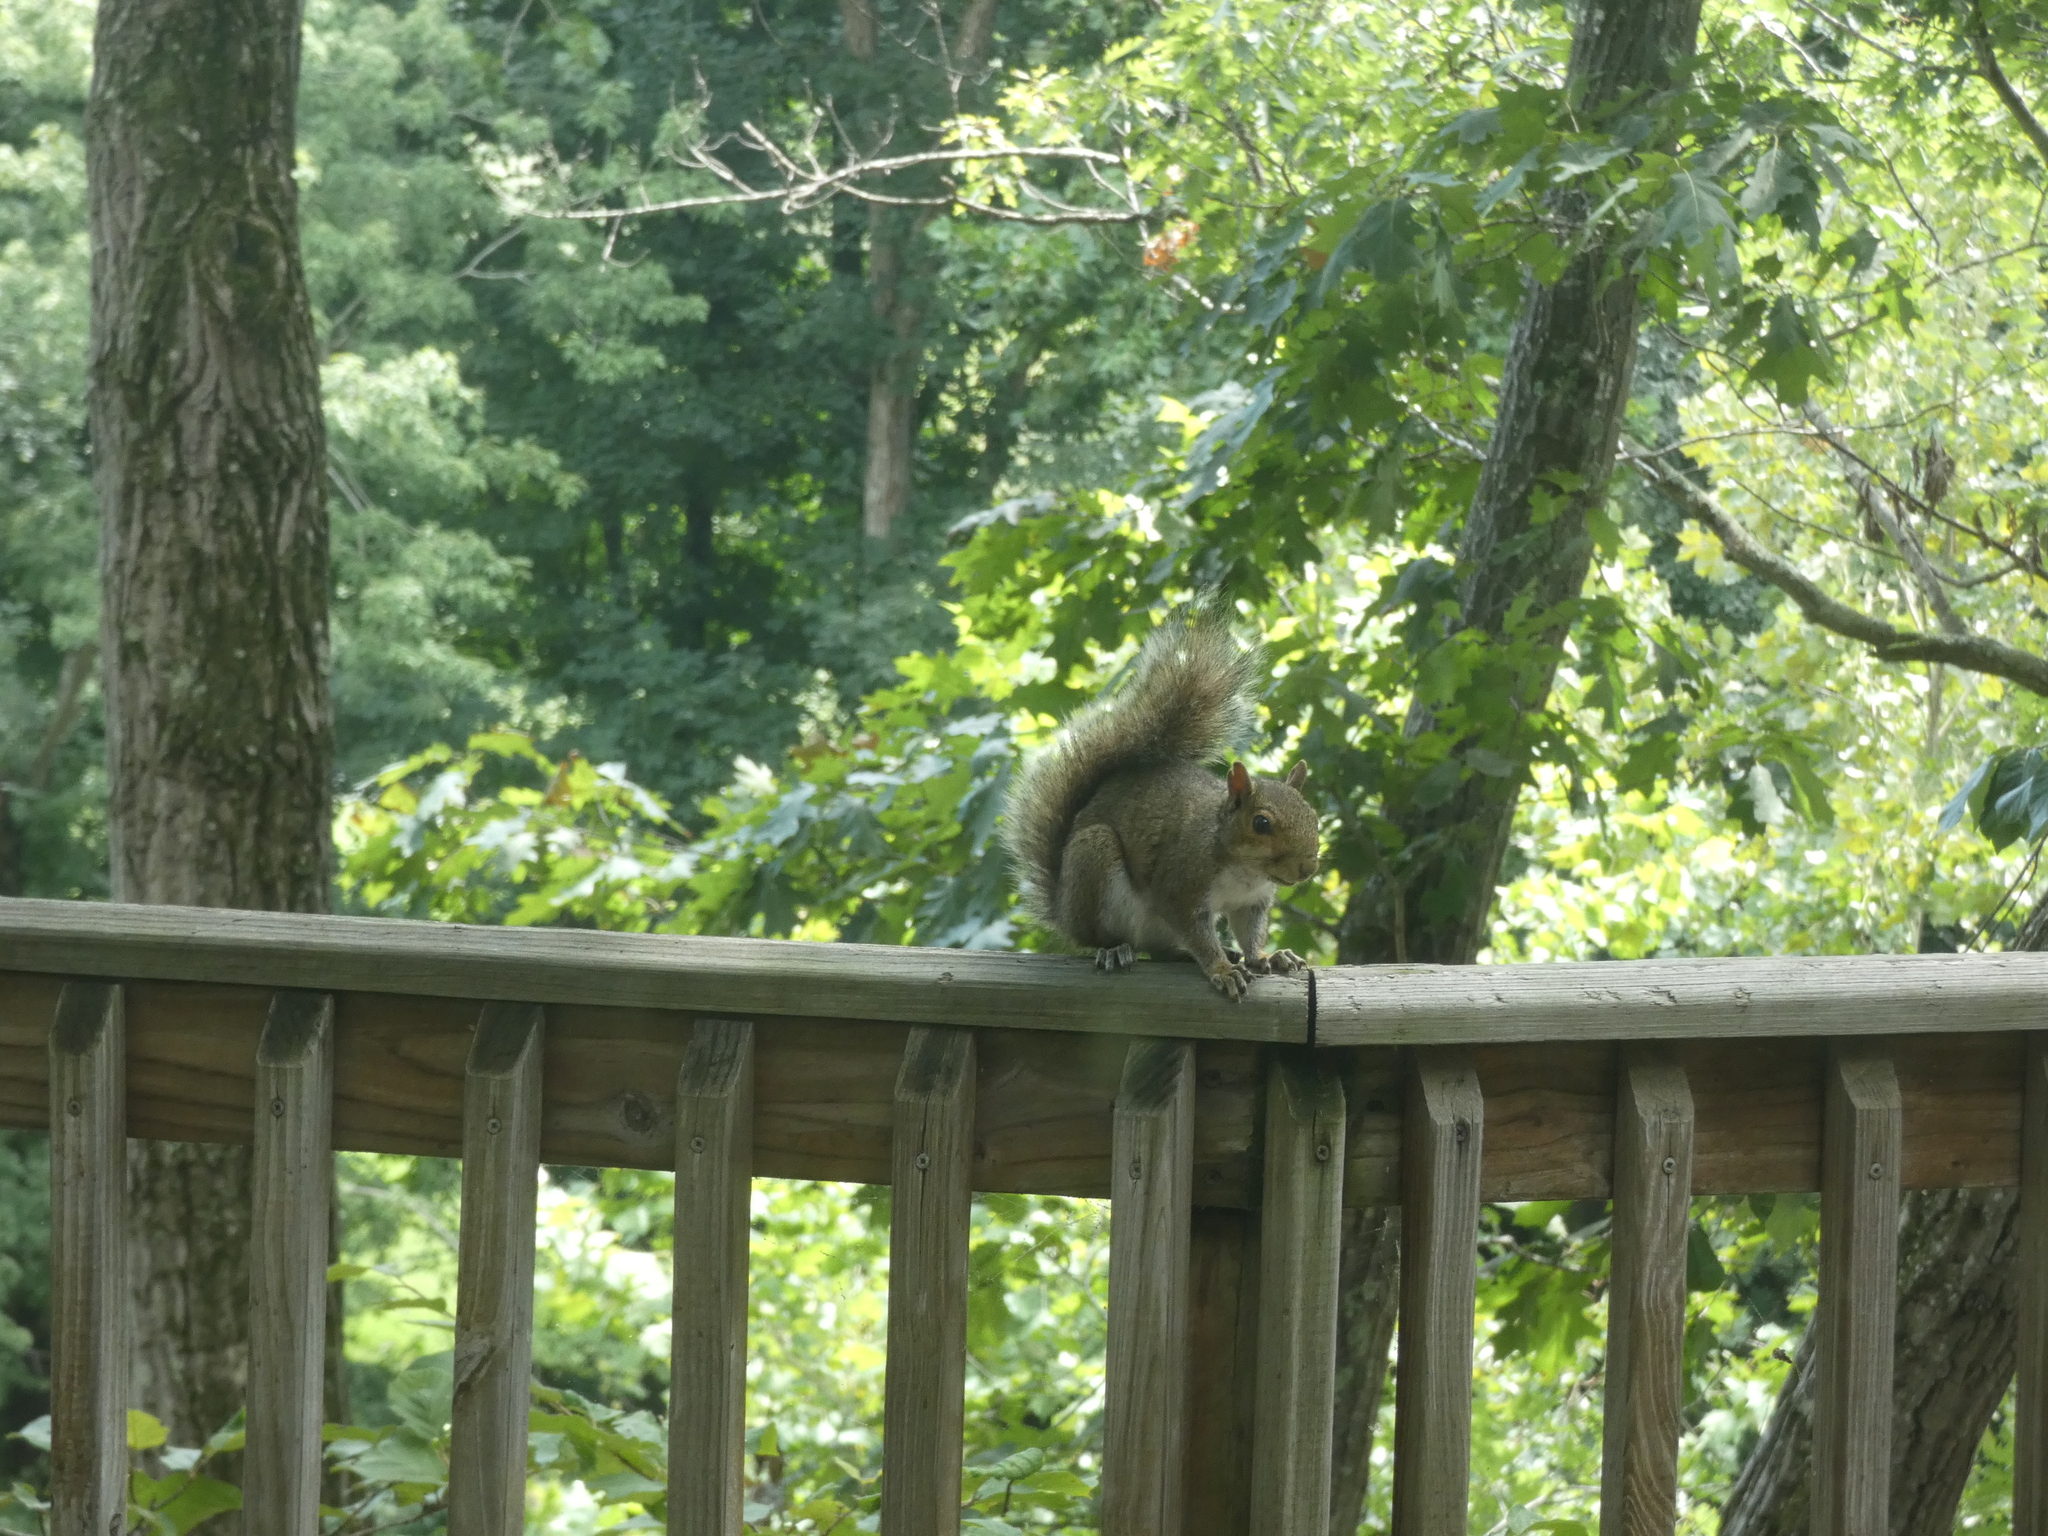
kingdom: Animalia
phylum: Chordata
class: Mammalia
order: Rodentia
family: Sciuridae
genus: Sciurus
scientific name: Sciurus carolinensis
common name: Eastern gray squirrel
